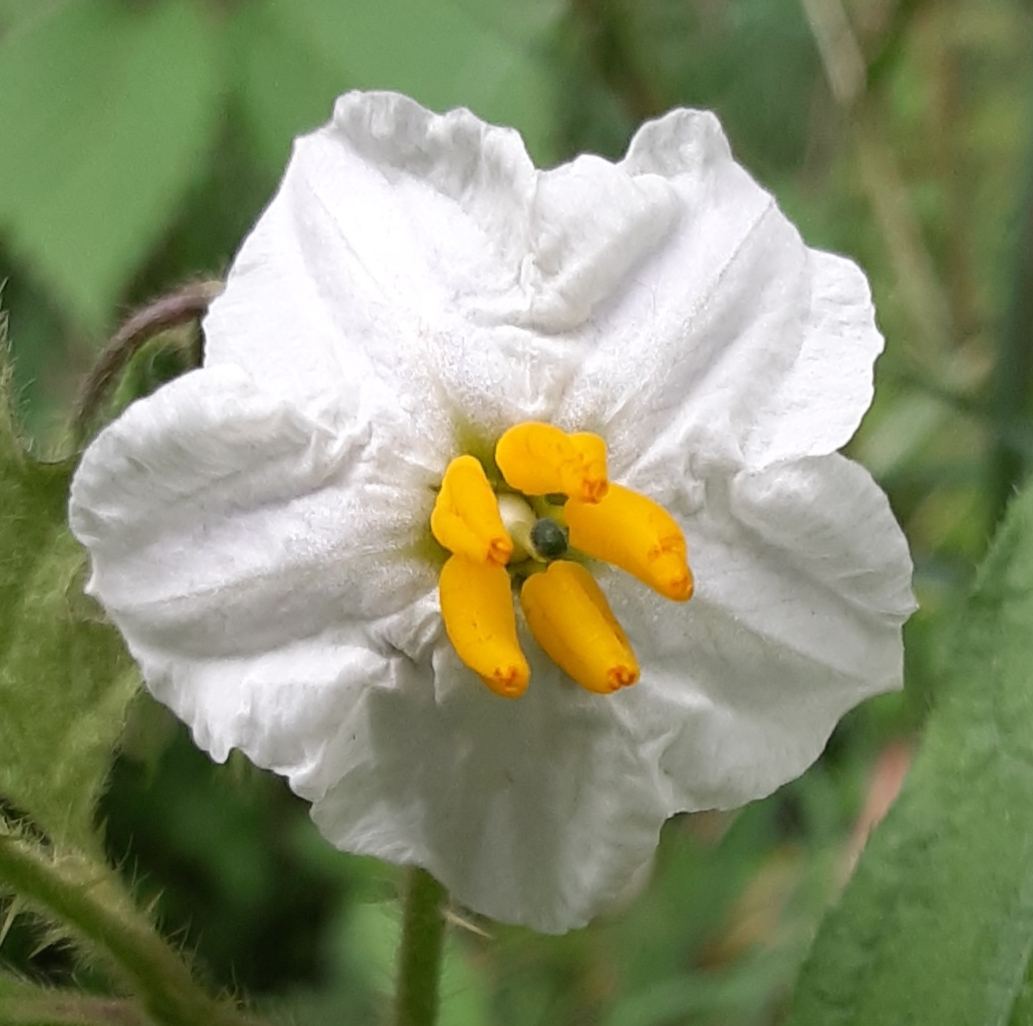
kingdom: Plantae
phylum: Tracheophyta
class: Magnoliopsida
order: Solanales
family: Solanaceae
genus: Solanum
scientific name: Solanum carolinense
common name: Horse-nettle
